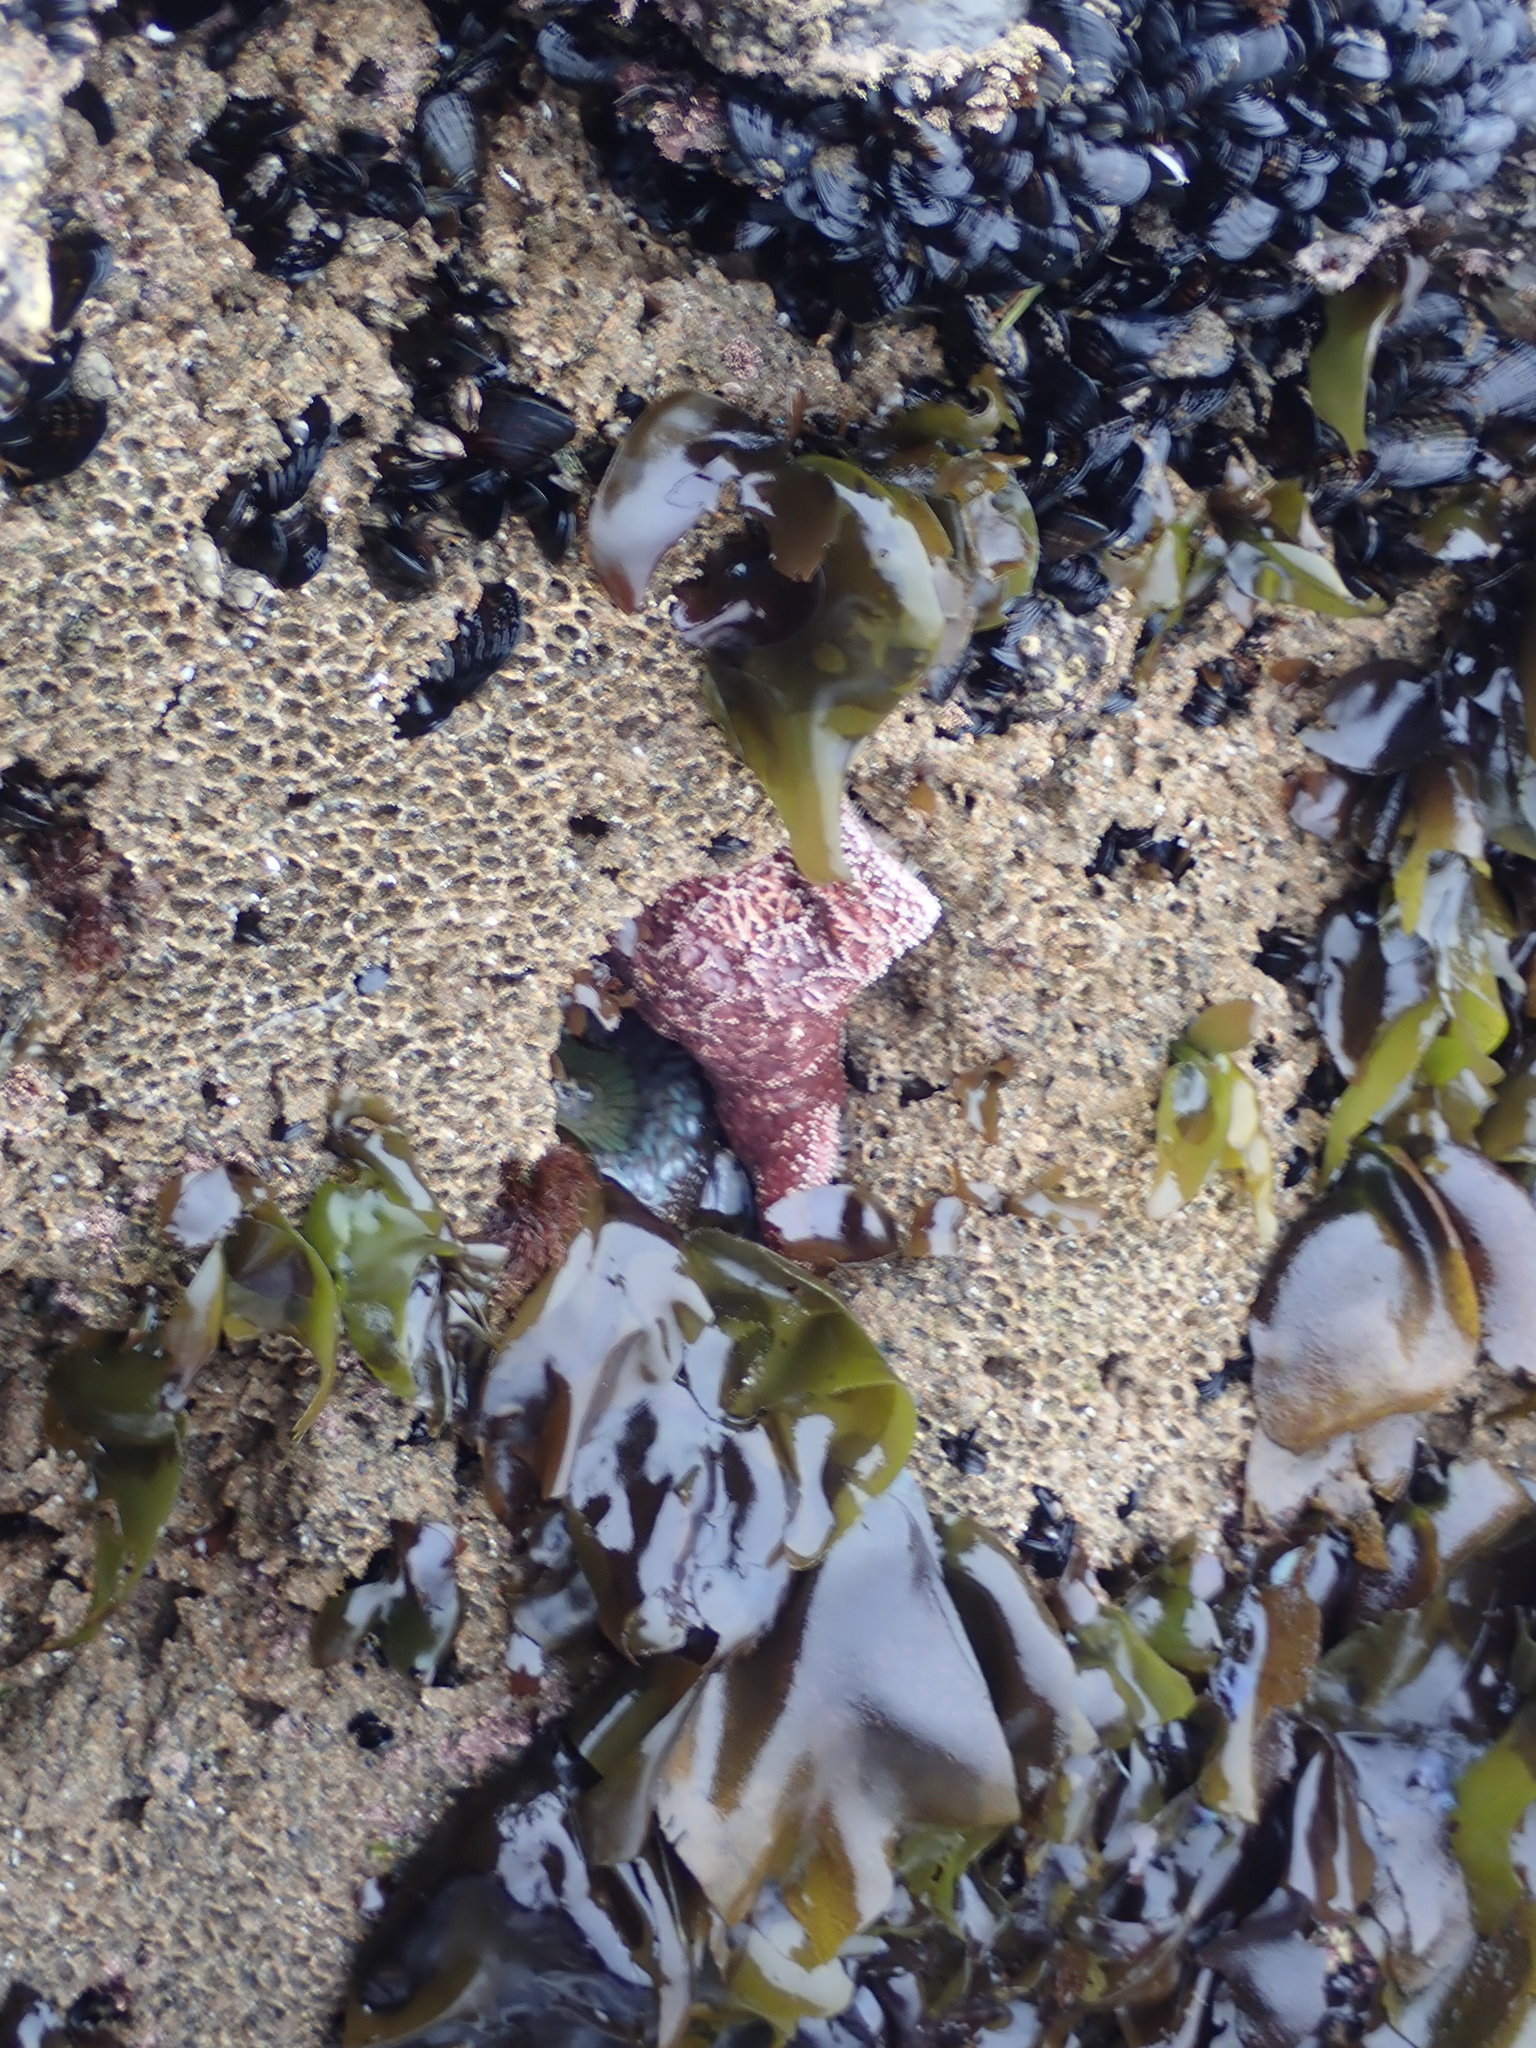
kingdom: Animalia
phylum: Echinodermata
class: Asteroidea
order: Forcipulatida
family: Asteriidae
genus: Pisaster
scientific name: Pisaster ochraceus
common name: Ochre stars
